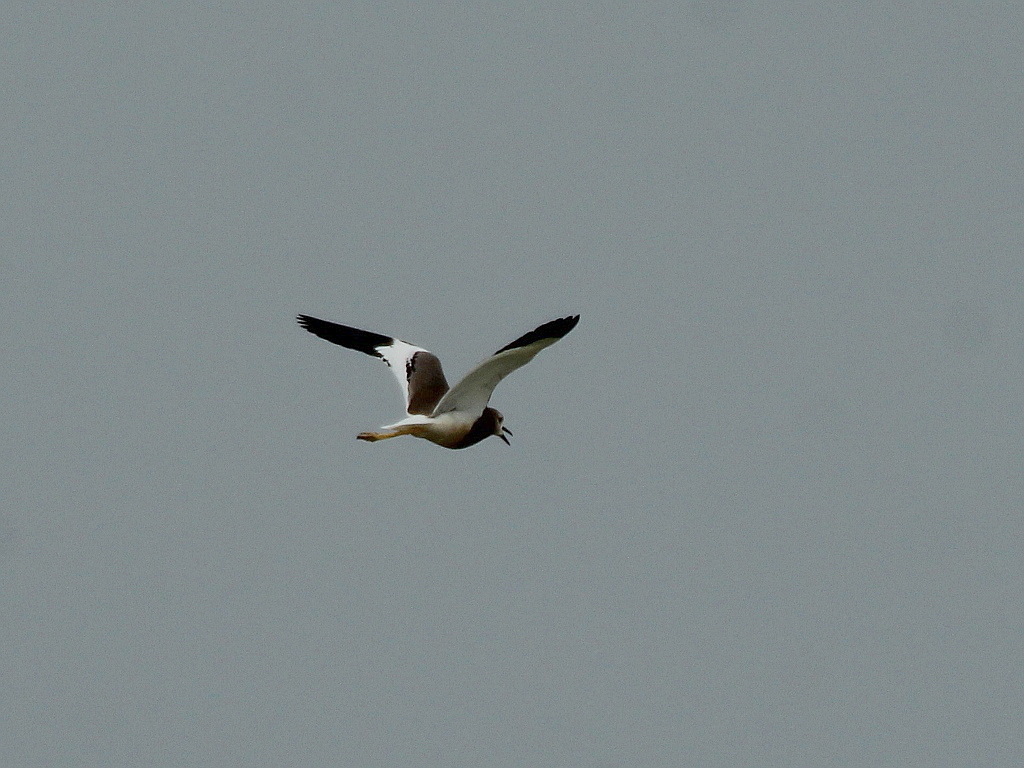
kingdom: Animalia
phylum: Chordata
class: Aves
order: Charadriiformes
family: Charadriidae
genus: Vanellus
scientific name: Vanellus leucurus
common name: White-tailed lapwing
